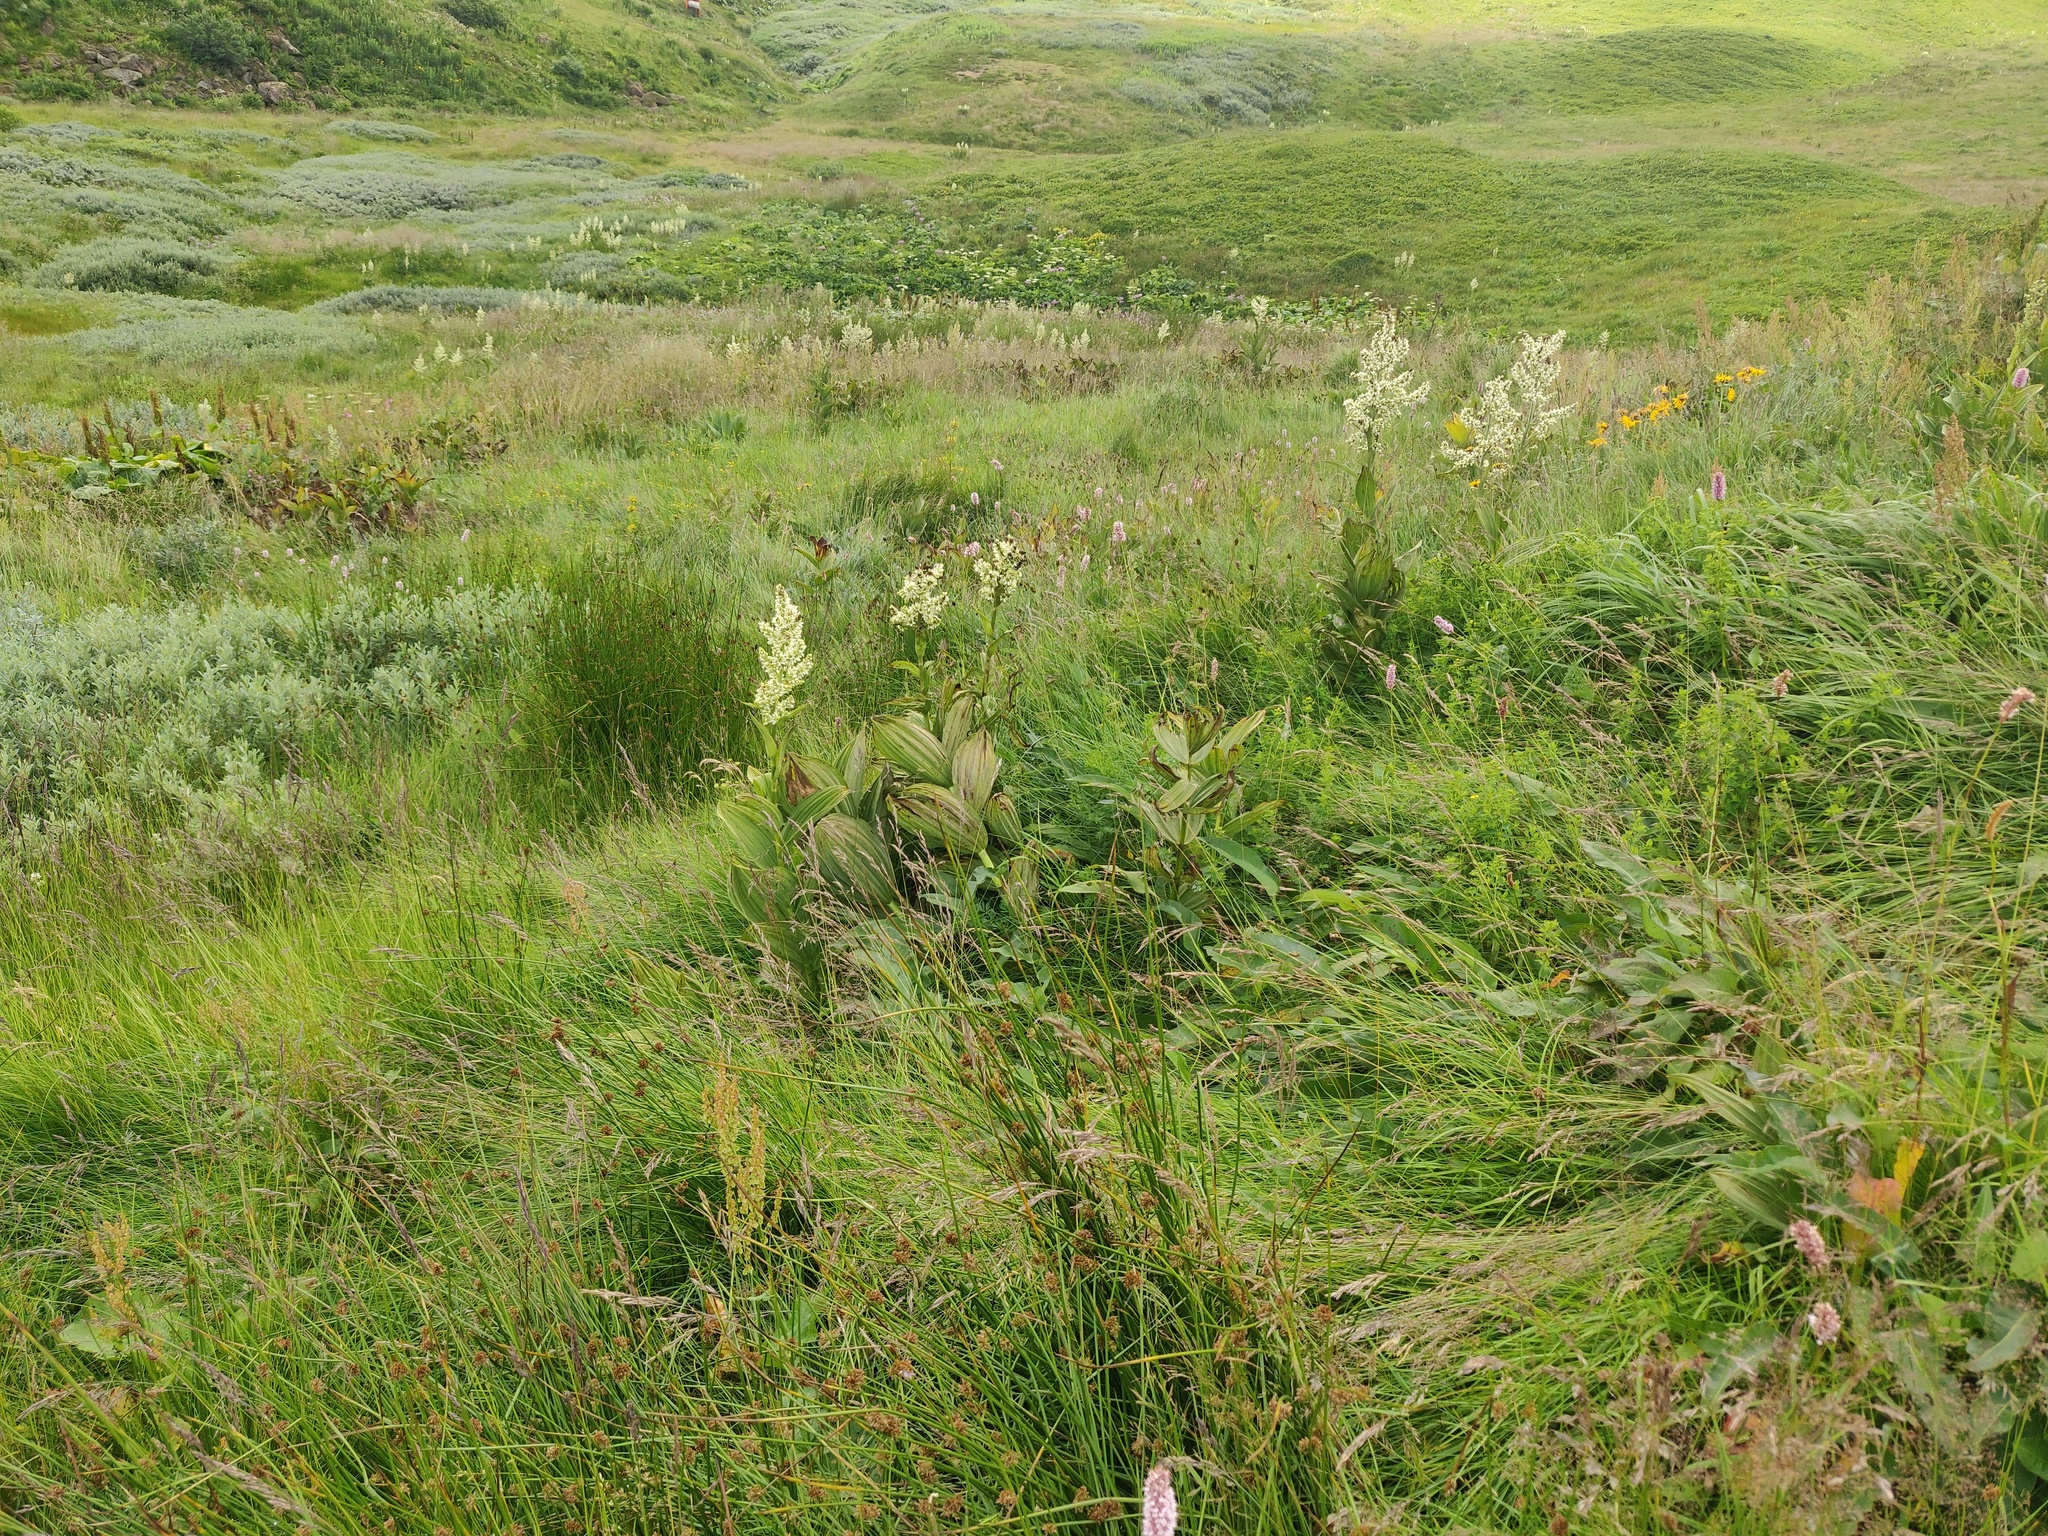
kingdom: Plantae
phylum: Tracheophyta
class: Liliopsida
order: Liliales
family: Melanthiaceae
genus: Veratrum
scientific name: Veratrum album
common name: White veratrum
